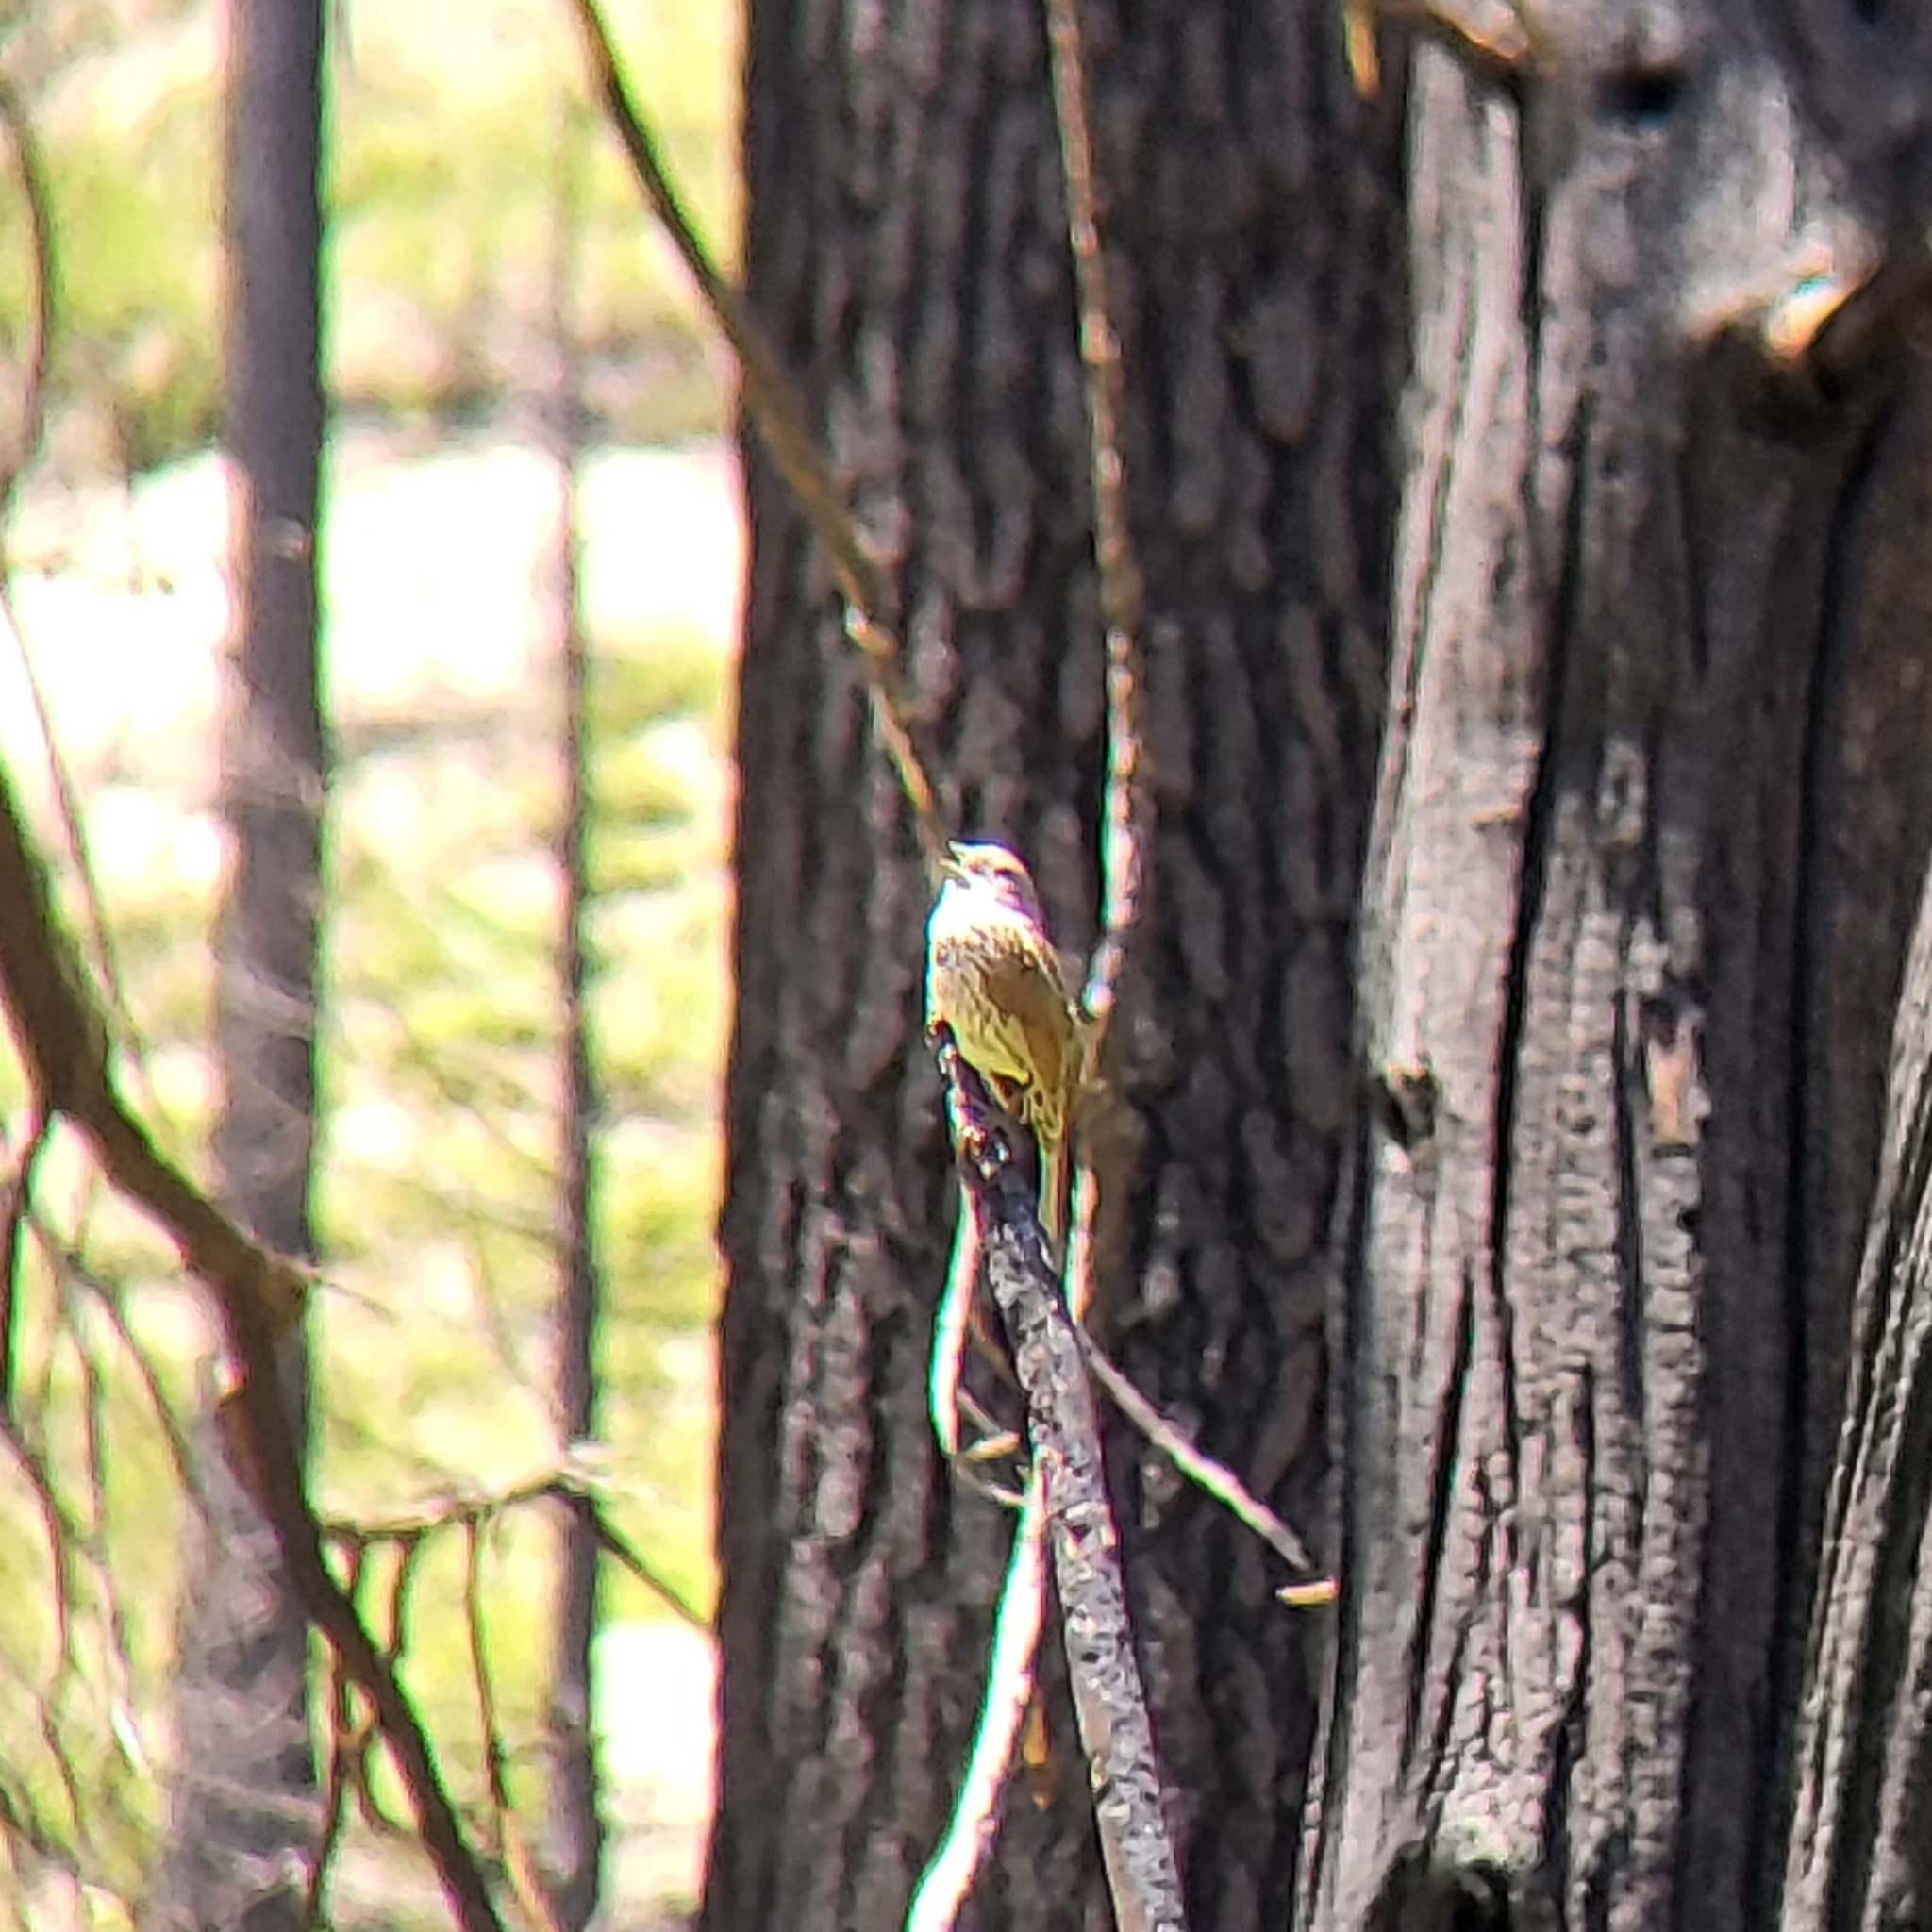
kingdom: Animalia
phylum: Chordata
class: Aves
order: Passeriformes
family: Passerellidae
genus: Passerella
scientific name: Passerella iliaca
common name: Fox sparrow
